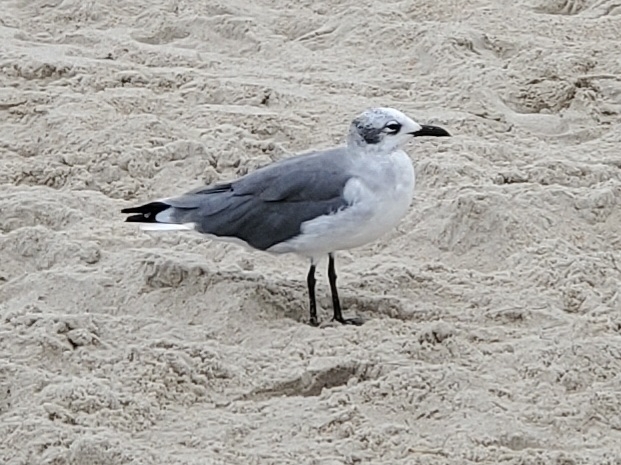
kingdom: Animalia
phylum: Chordata
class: Aves
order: Charadriiformes
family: Laridae
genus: Leucophaeus
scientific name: Leucophaeus atricilla
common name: Laughing gull
